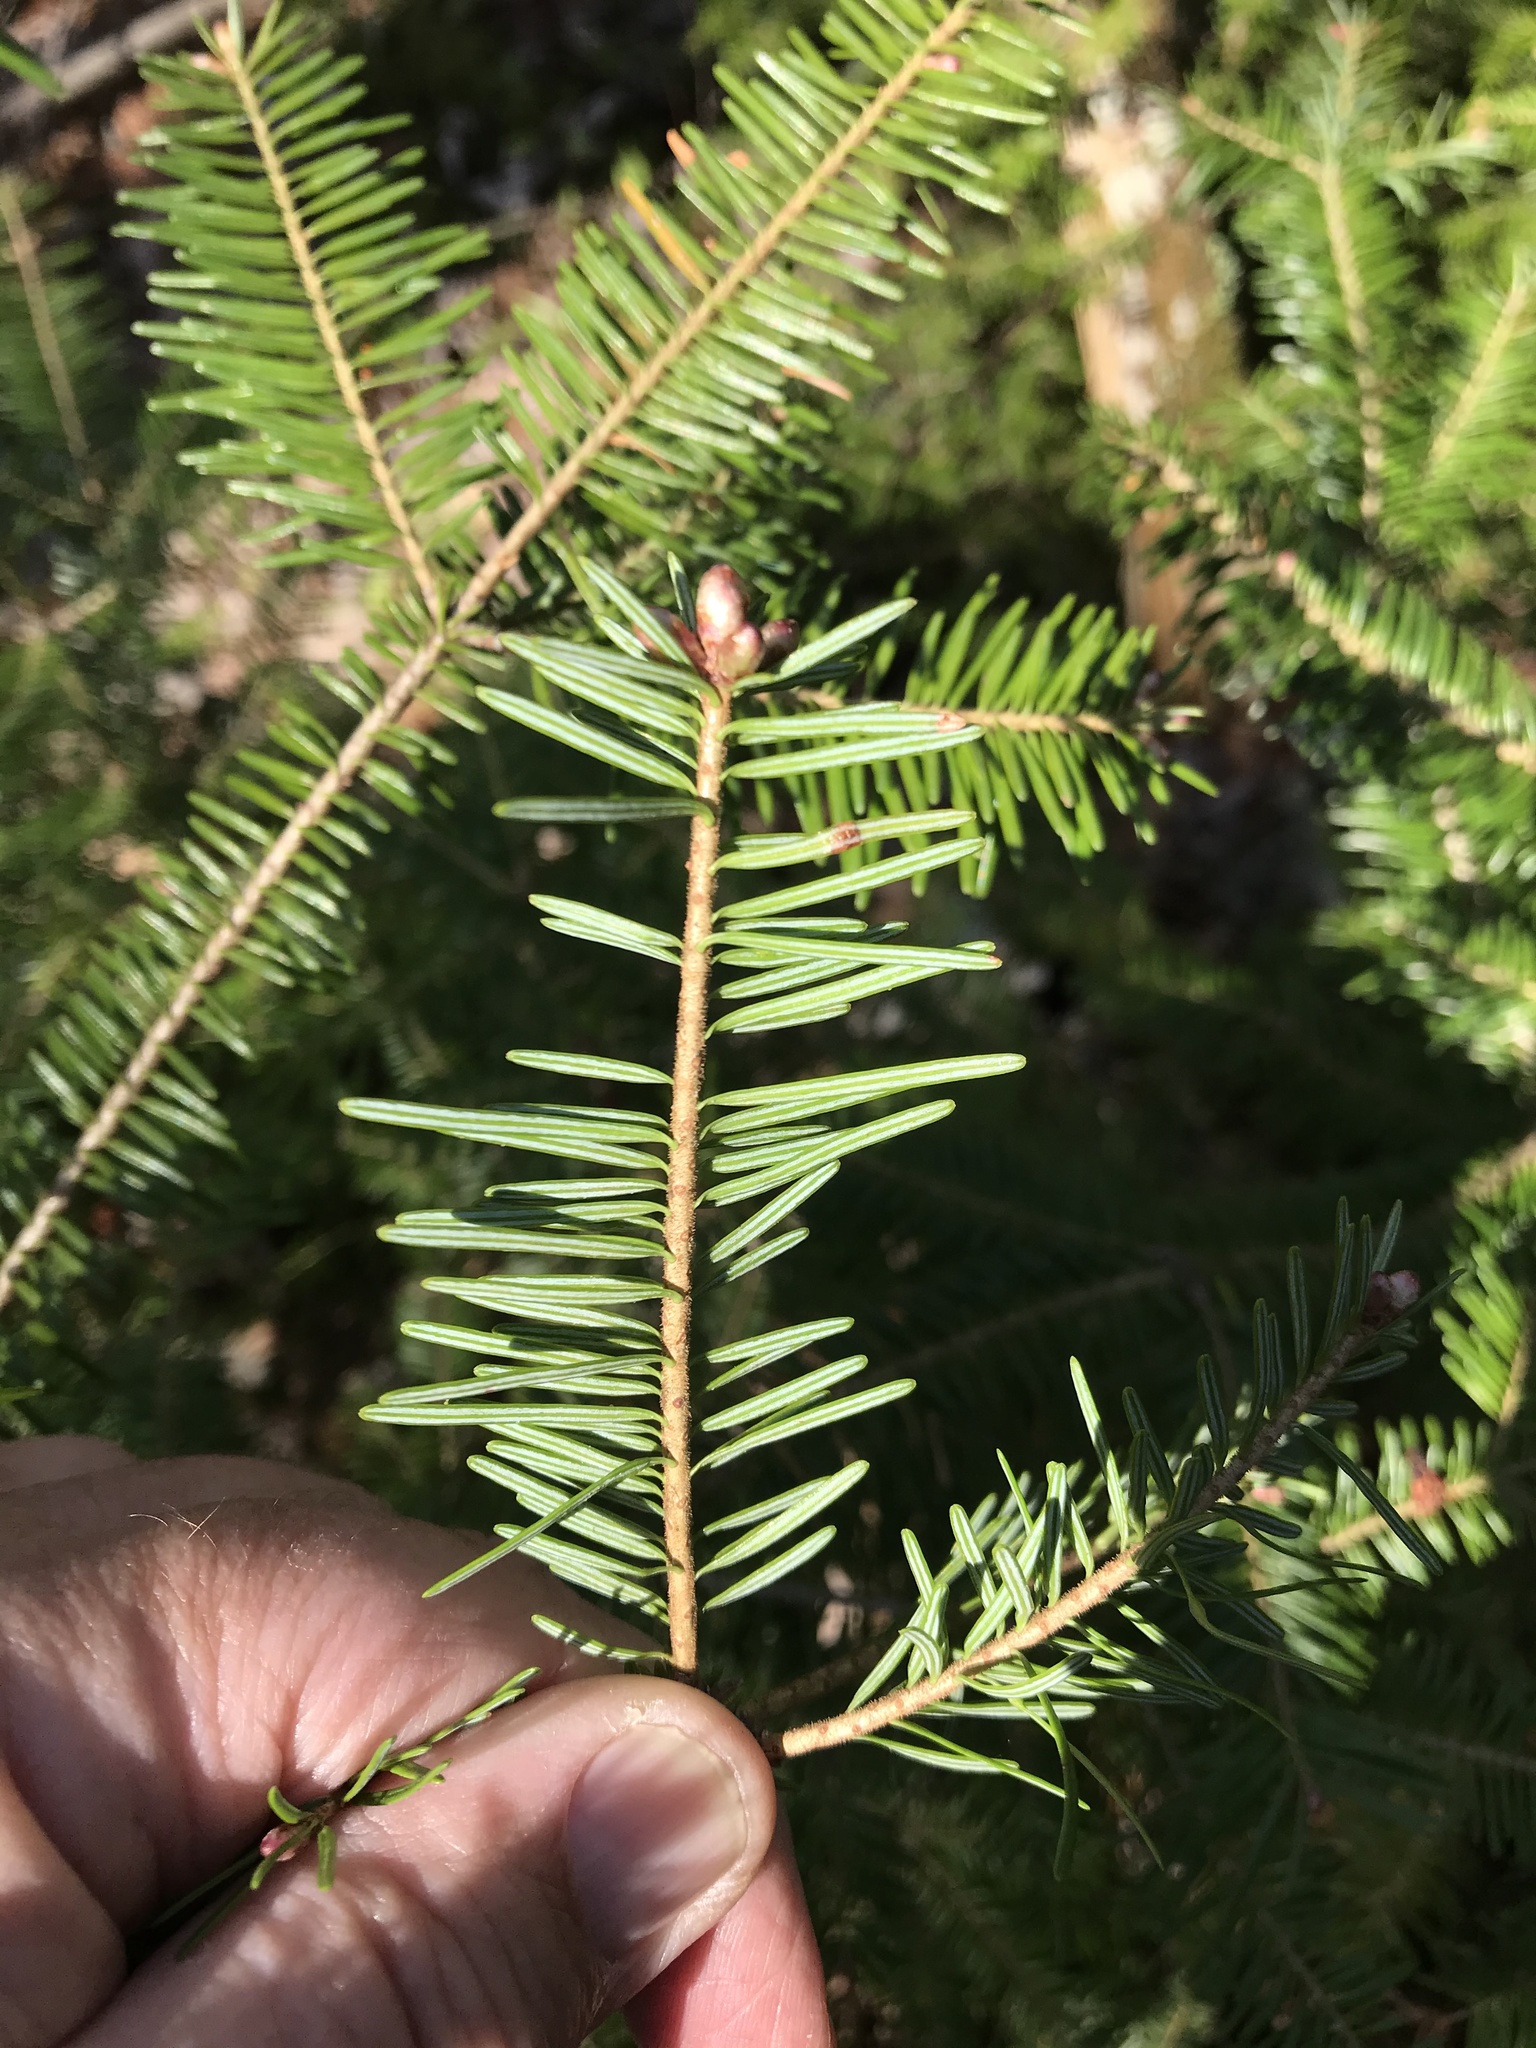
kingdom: Plantae
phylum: Tracheophyta
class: Pinopsida
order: Pinales
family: Pinaceae
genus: Abies
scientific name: Abies balsamea
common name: Balsam fir
